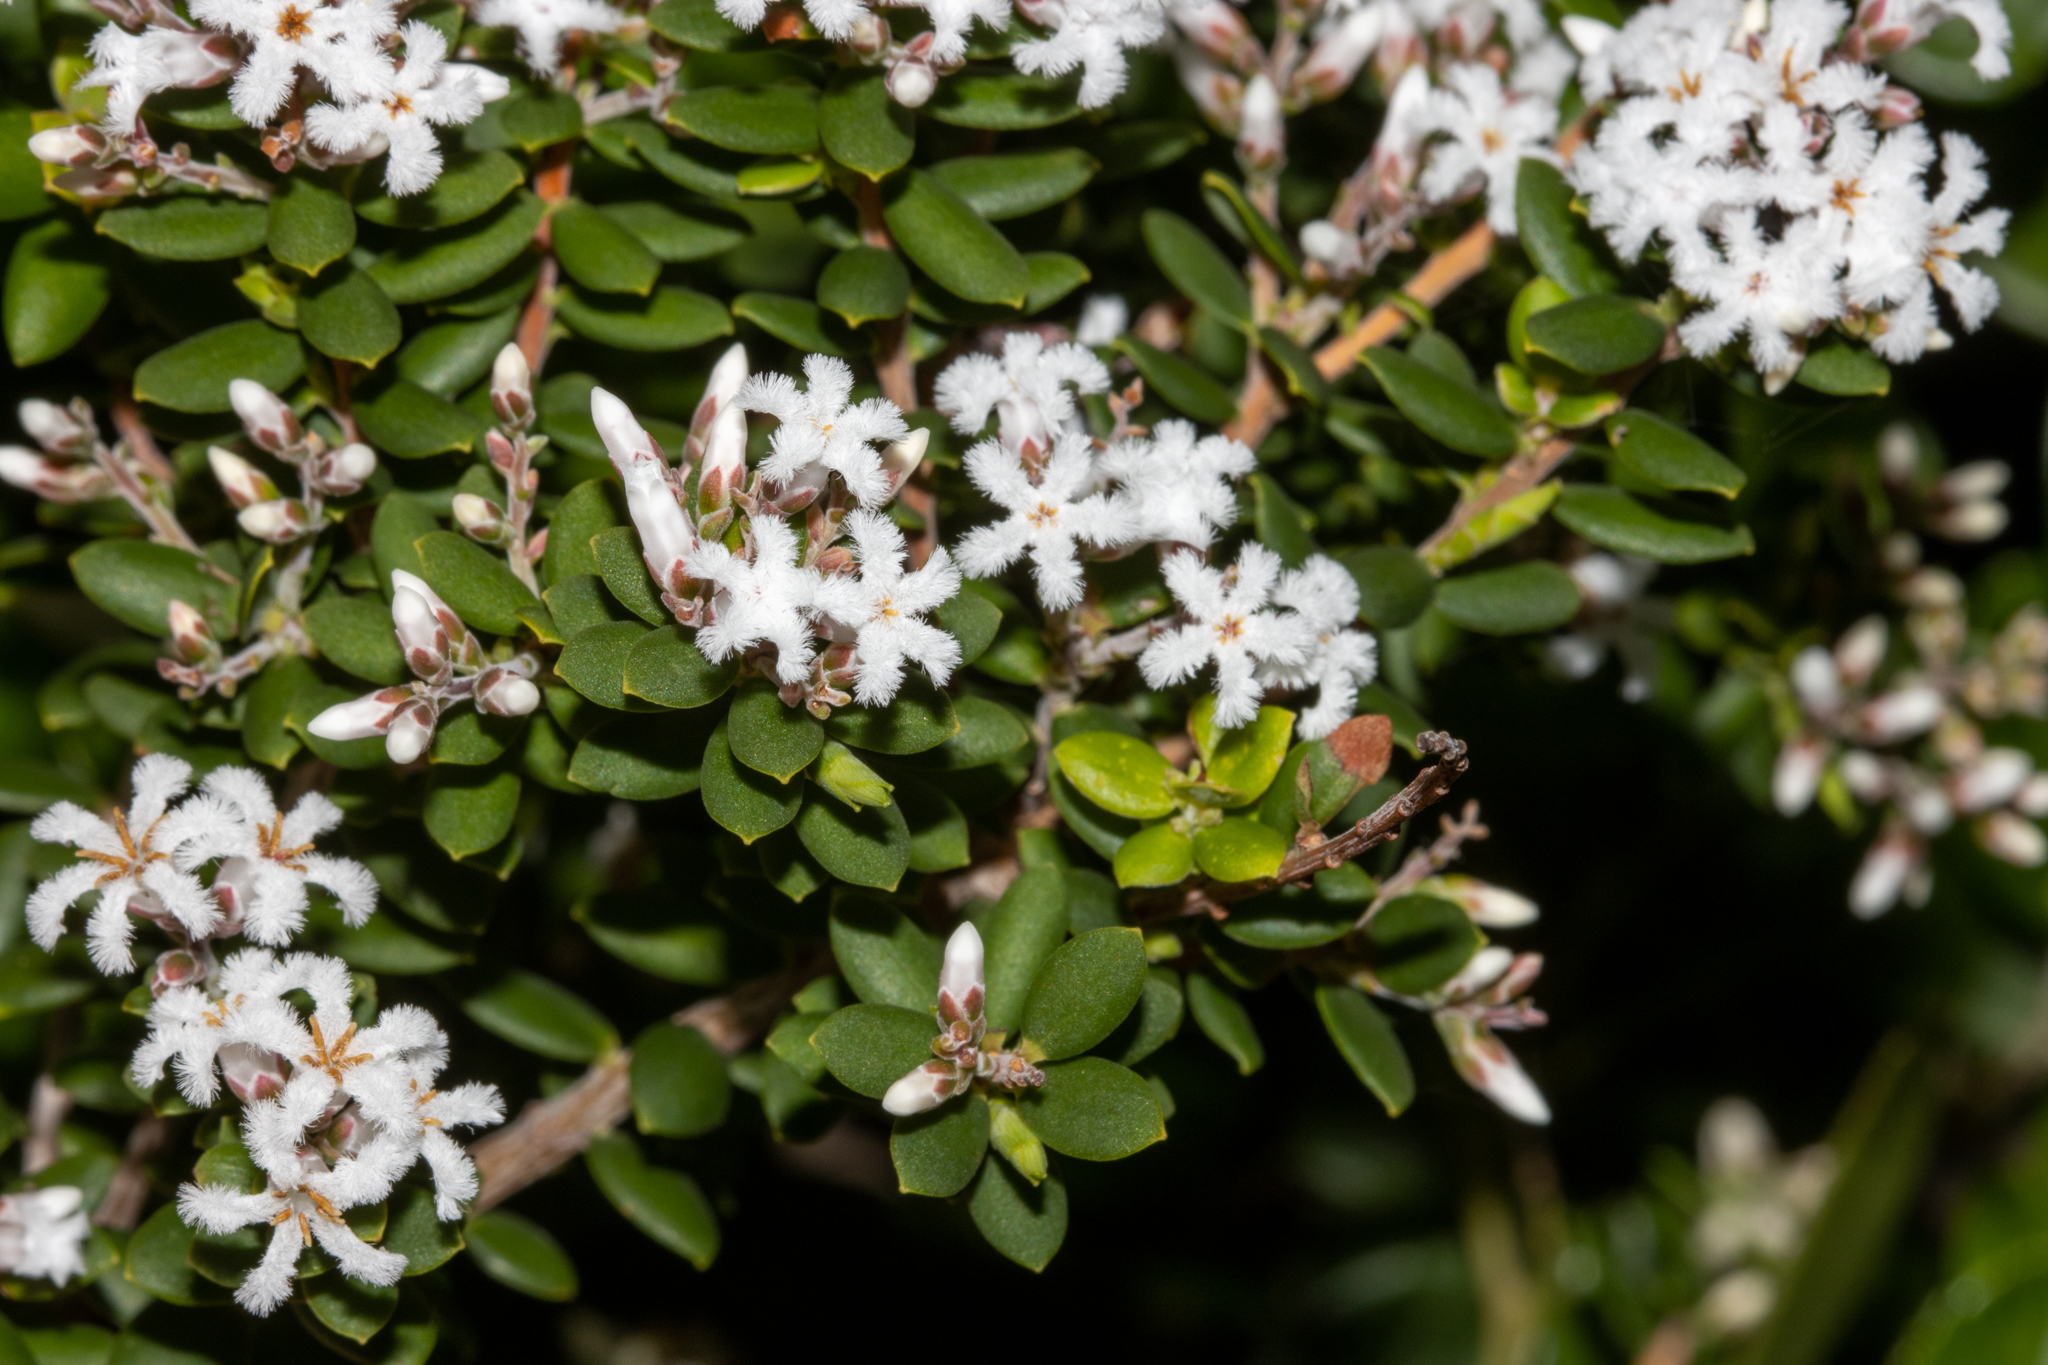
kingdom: Plantae
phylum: Tracheophyta
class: Magnoliopsida
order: Ericales
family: Ericaceae
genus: Leptecophylla
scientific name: Leptecophylla parvifolia
